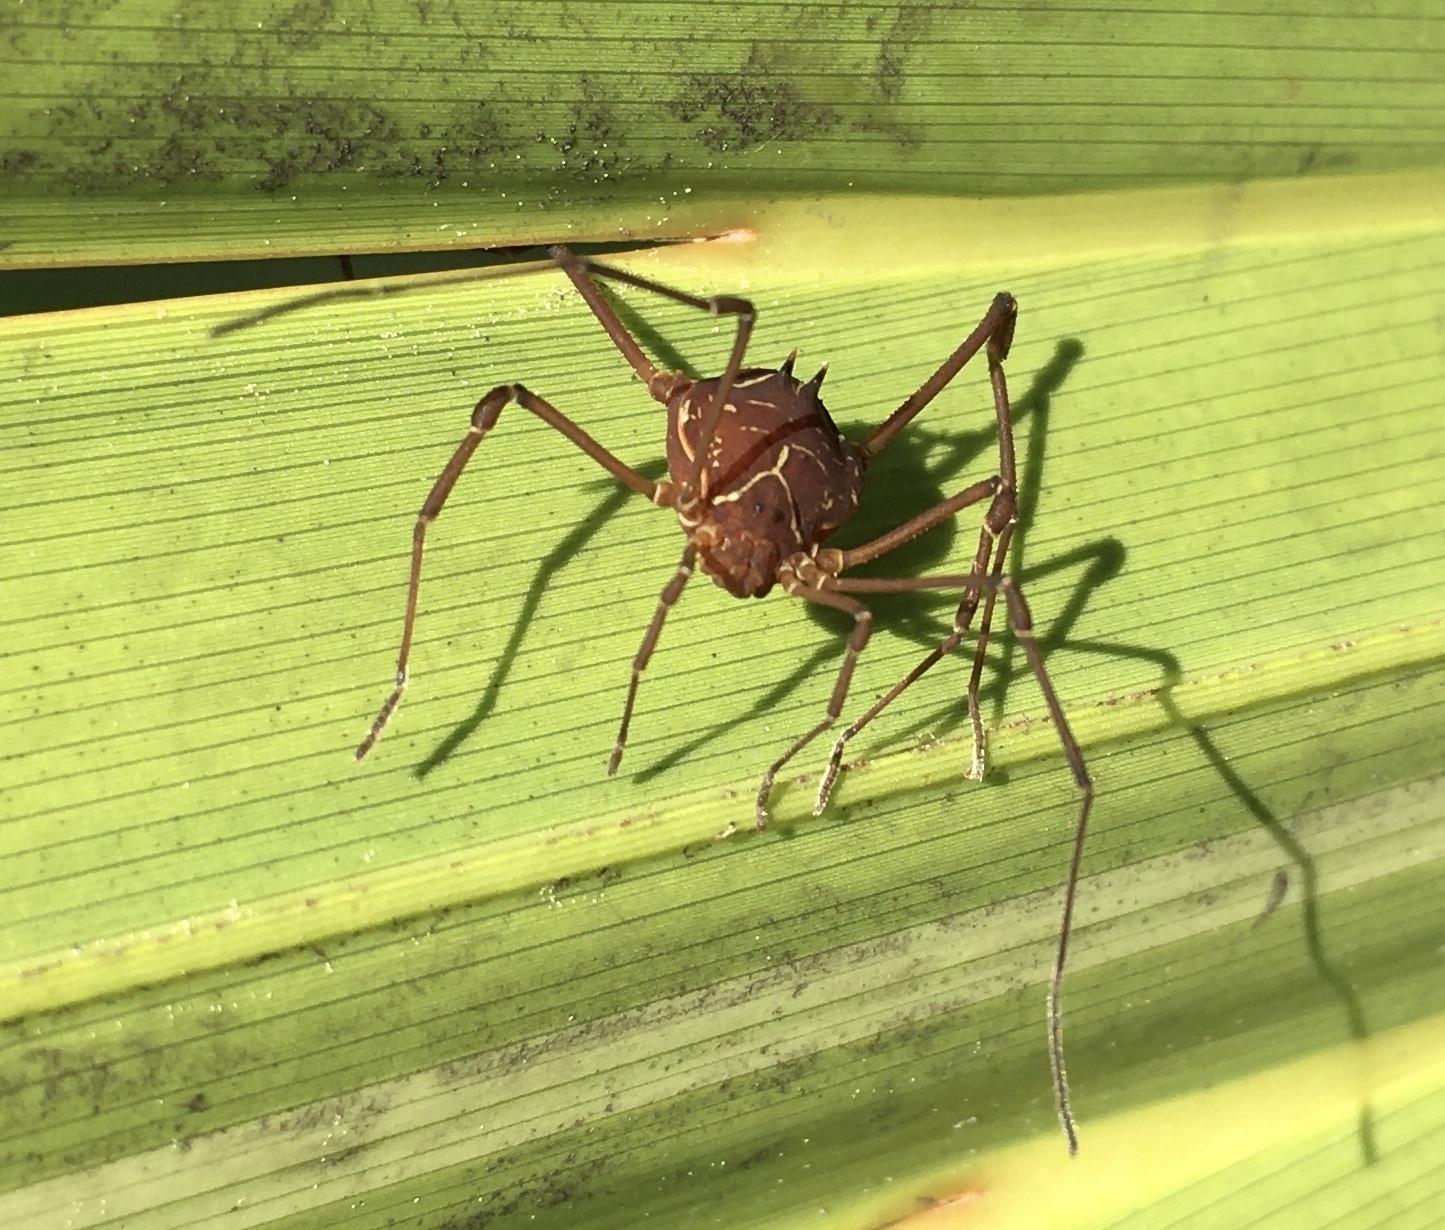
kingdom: Animalia
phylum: Arthropoda
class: Arachnida
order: Opiliones
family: Cosmetidae
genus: Libitioides
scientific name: Libitioides ornata
